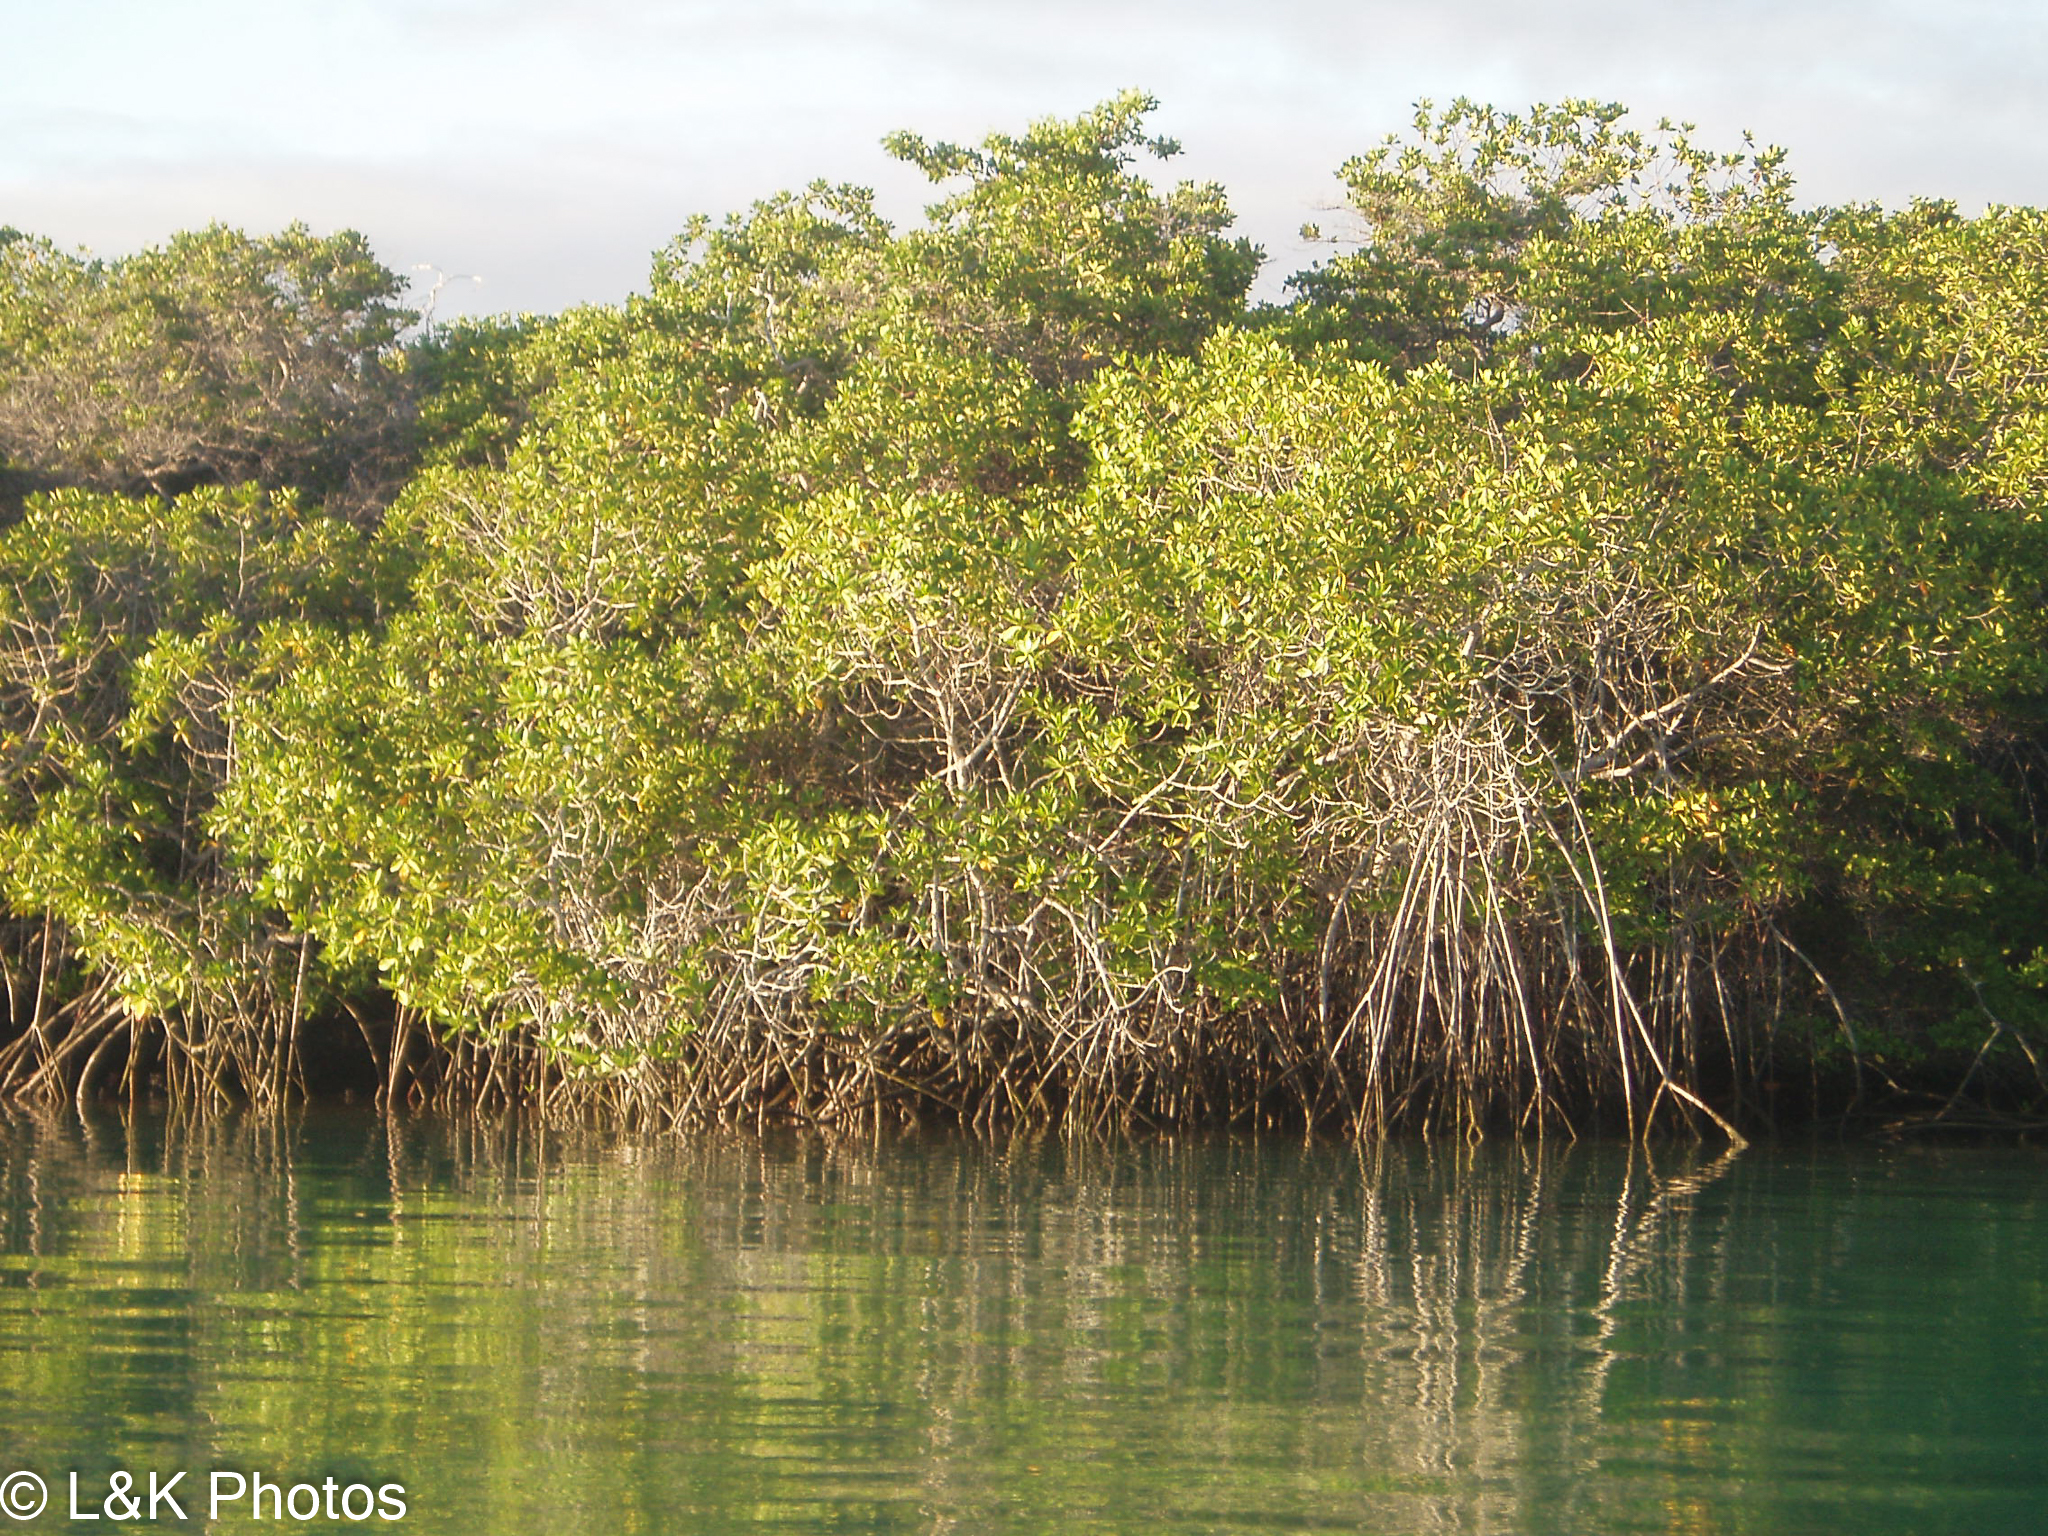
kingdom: Plantae
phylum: Tracheophyta
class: Magnoliopsida
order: Malpighiales
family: Rhizophoraceae
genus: Rhizophora
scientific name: Rhizophora mangle
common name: Red mangrove
